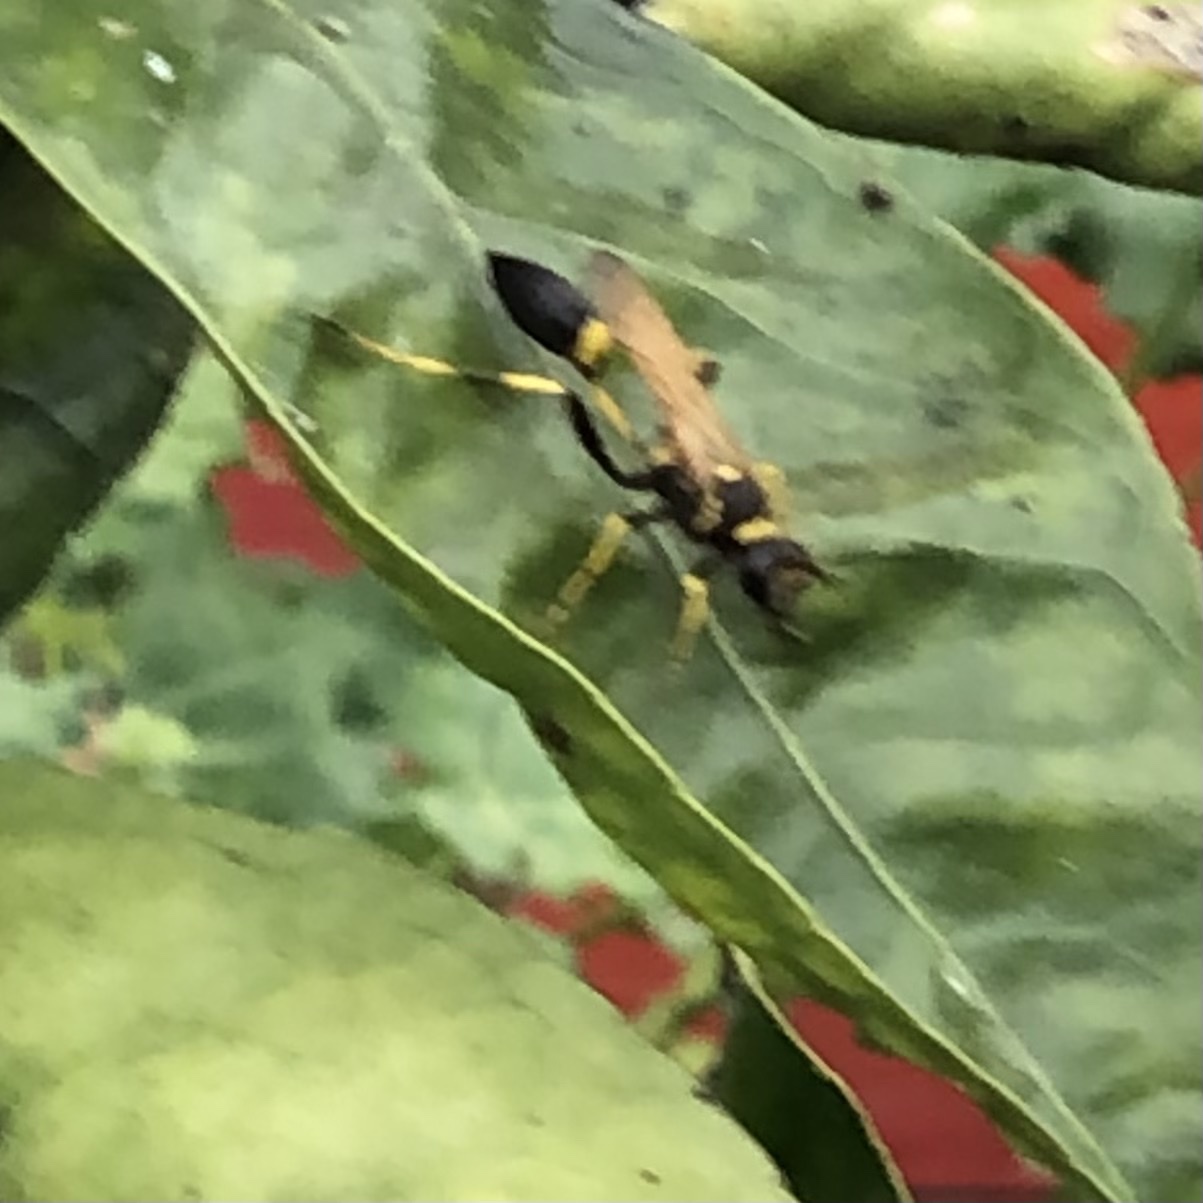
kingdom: Animalia
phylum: Arthropoda
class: Insecta
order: Hymenoptera
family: Sphecidae
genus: Sceliphron
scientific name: Sceliphron caementarium
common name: Mud dauber
